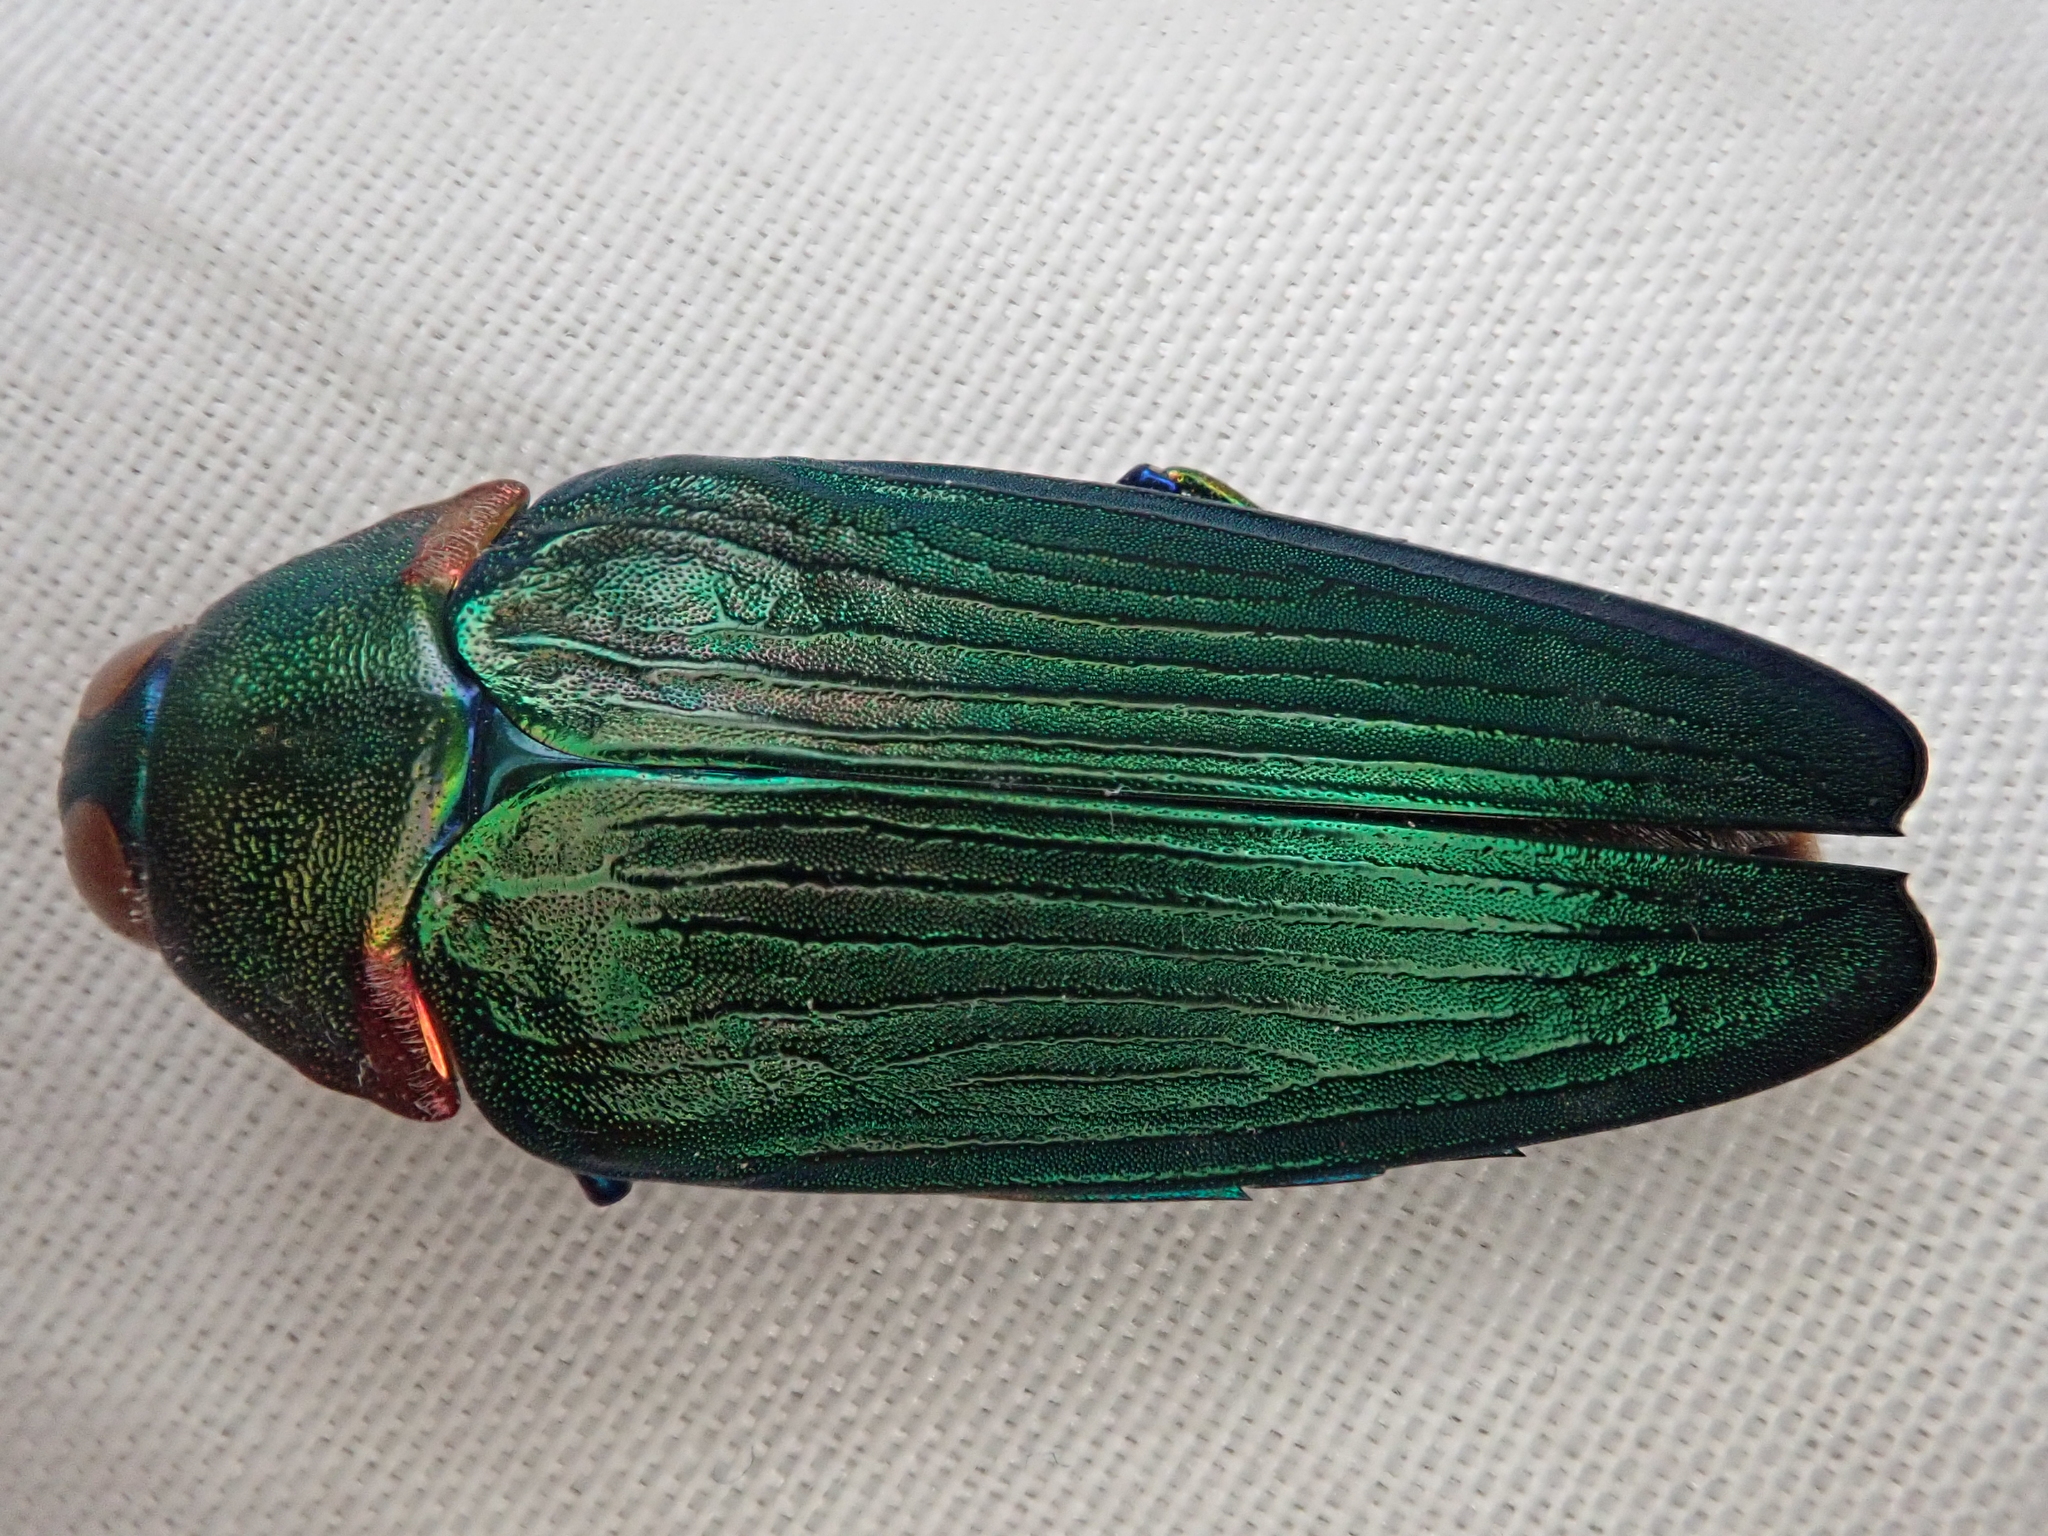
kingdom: Animalia
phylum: Arthropoda
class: Insecta
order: Coleoptera
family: Buprestidae
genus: Colobogaster
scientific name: Colobogaster resplendens
